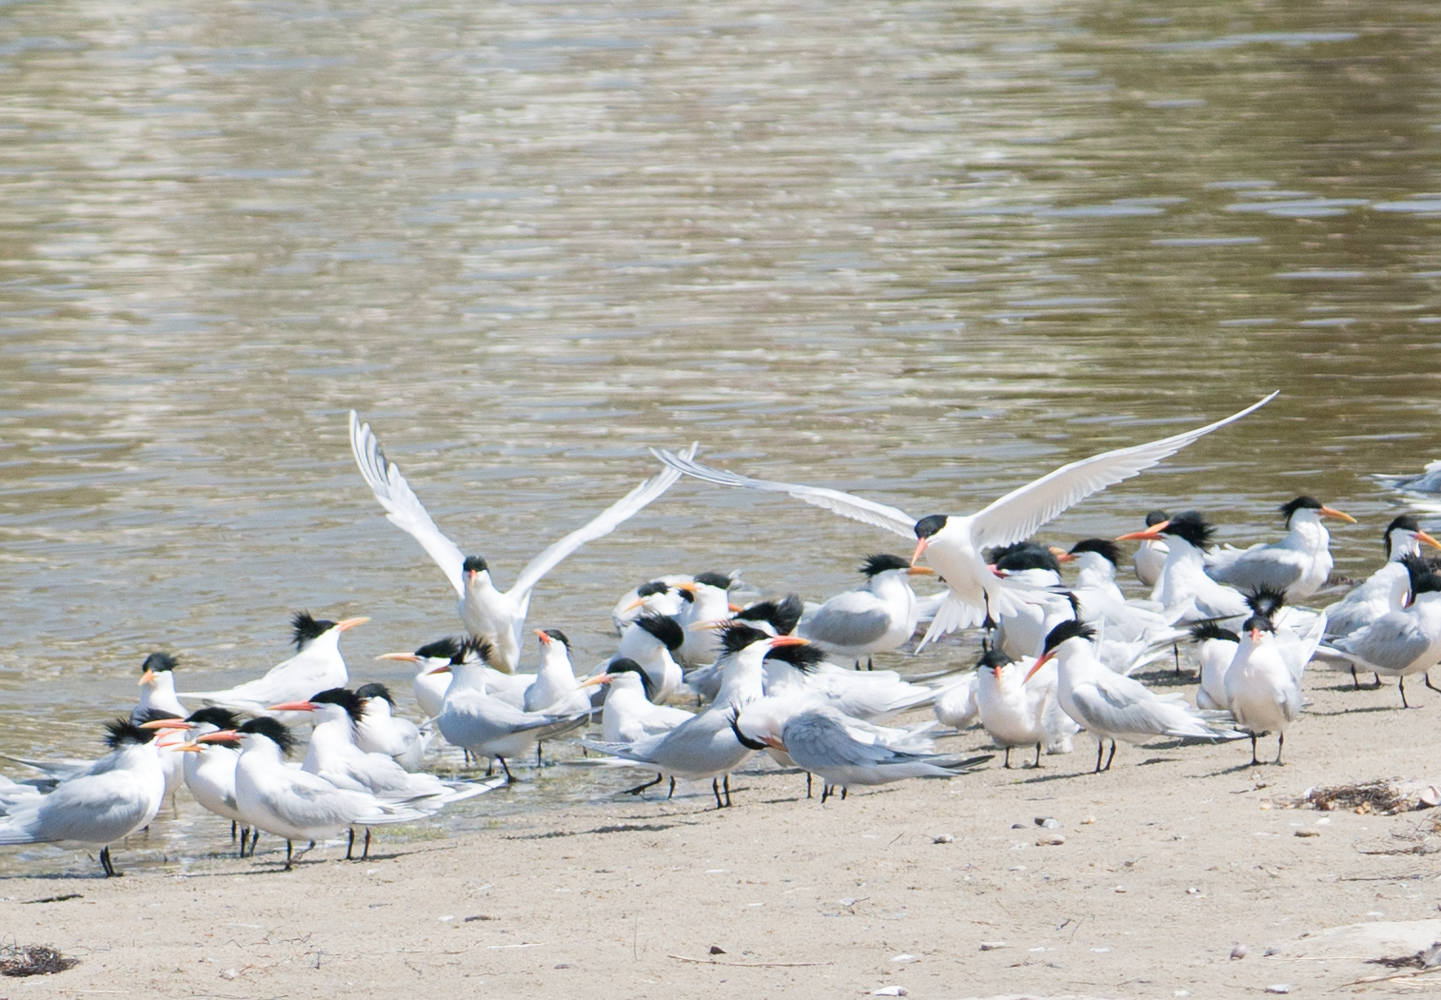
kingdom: Animalia
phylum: Chordata
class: Aves
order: Charadriiformes
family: Laridae
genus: Thalasseus
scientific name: Thalasseus elegans
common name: Elegant tern
